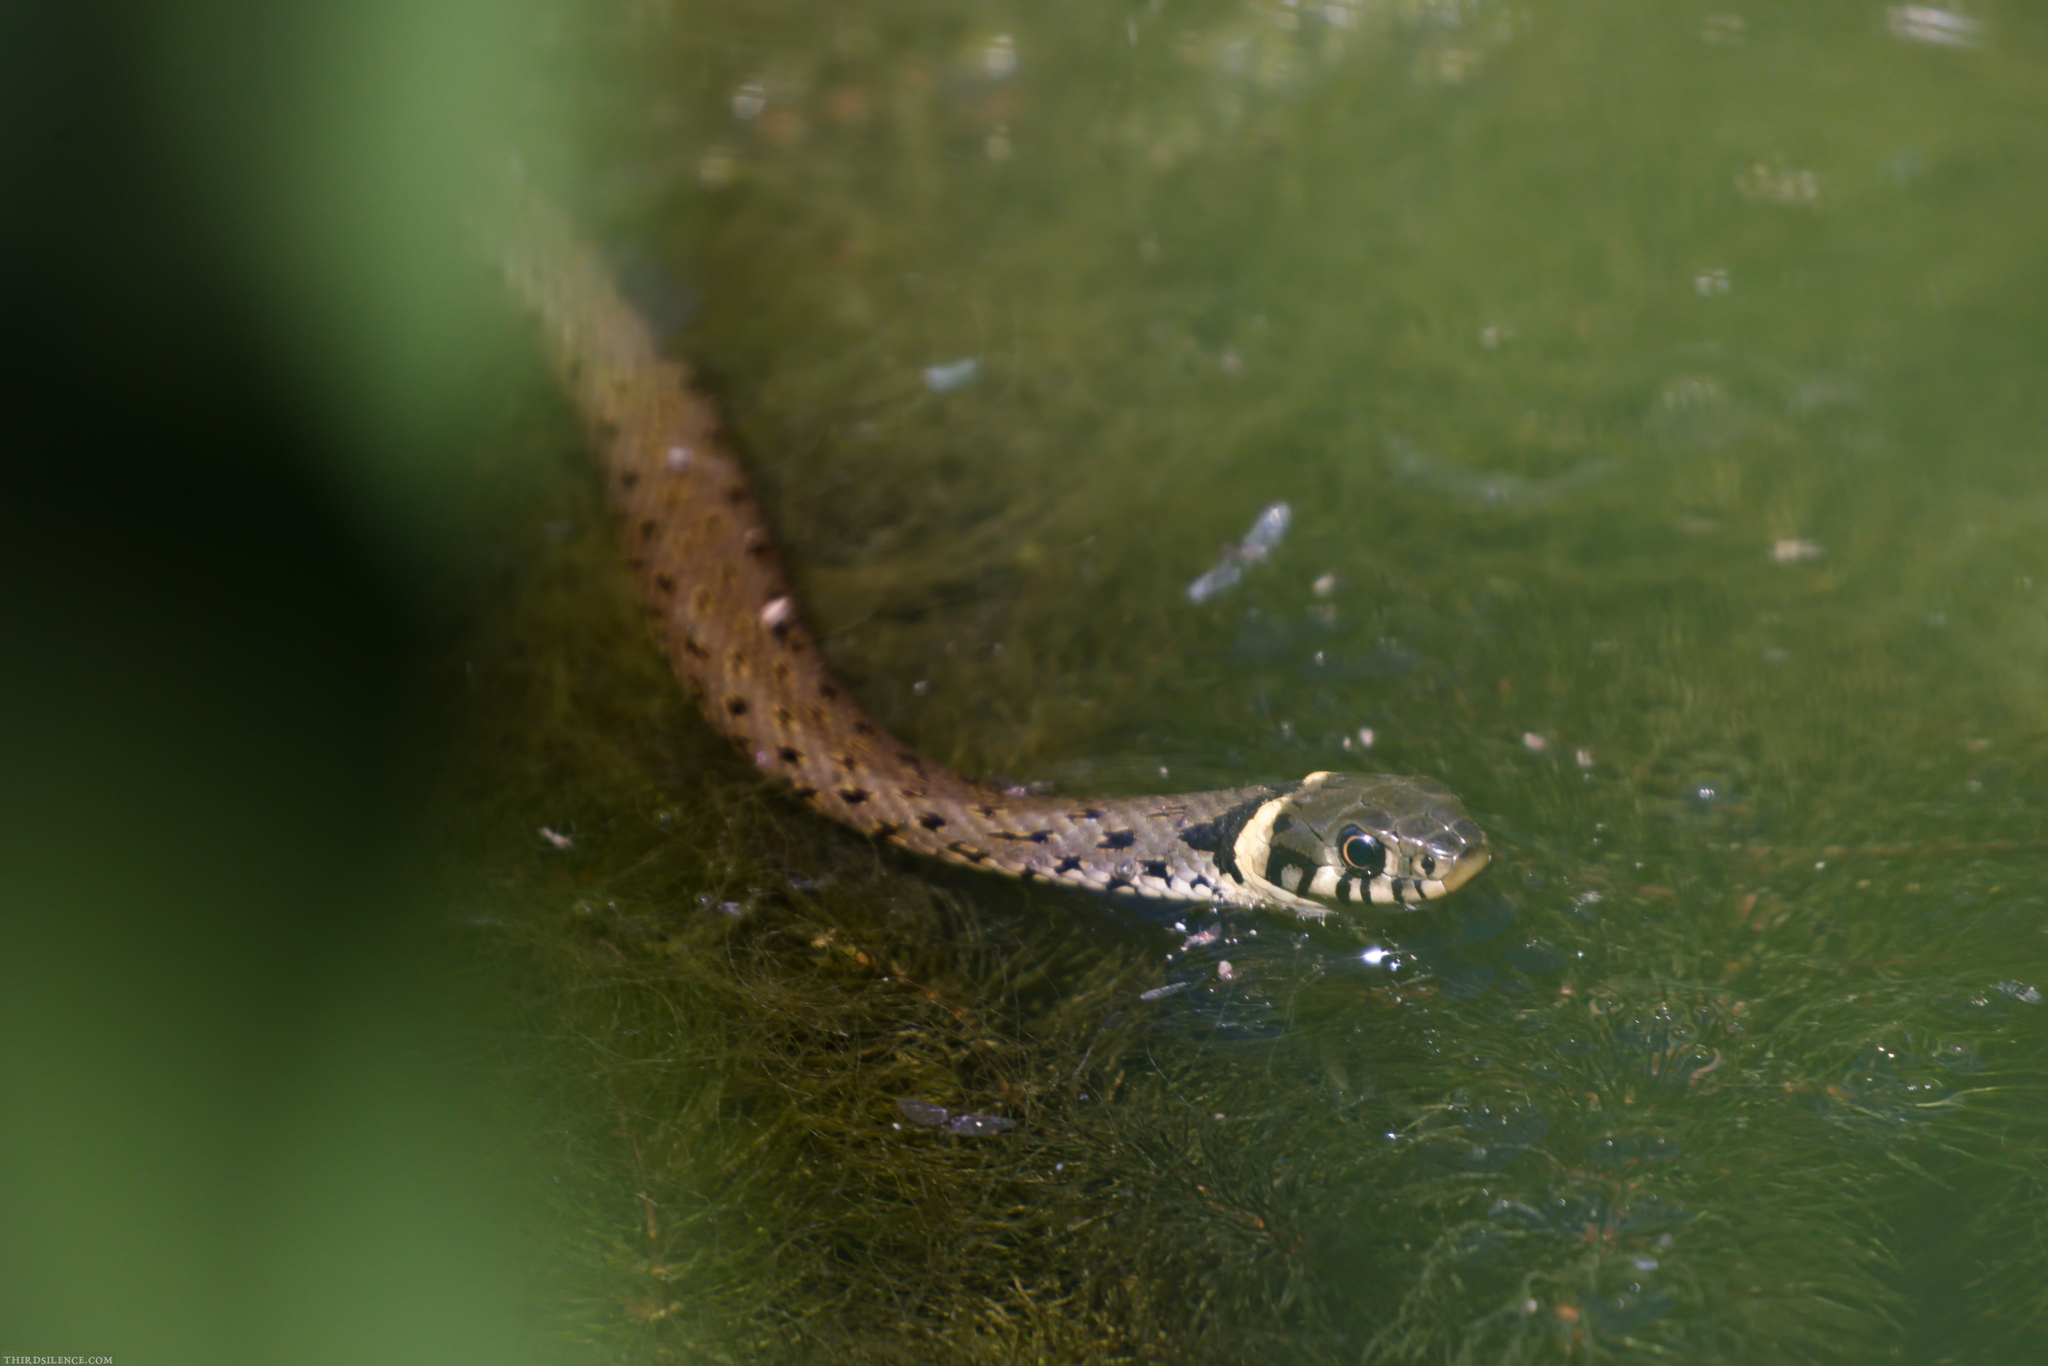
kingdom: Animalia
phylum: Chordata
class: Squamata
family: Colubridae
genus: Natrix
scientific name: Natrix natrix
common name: Grass snake
